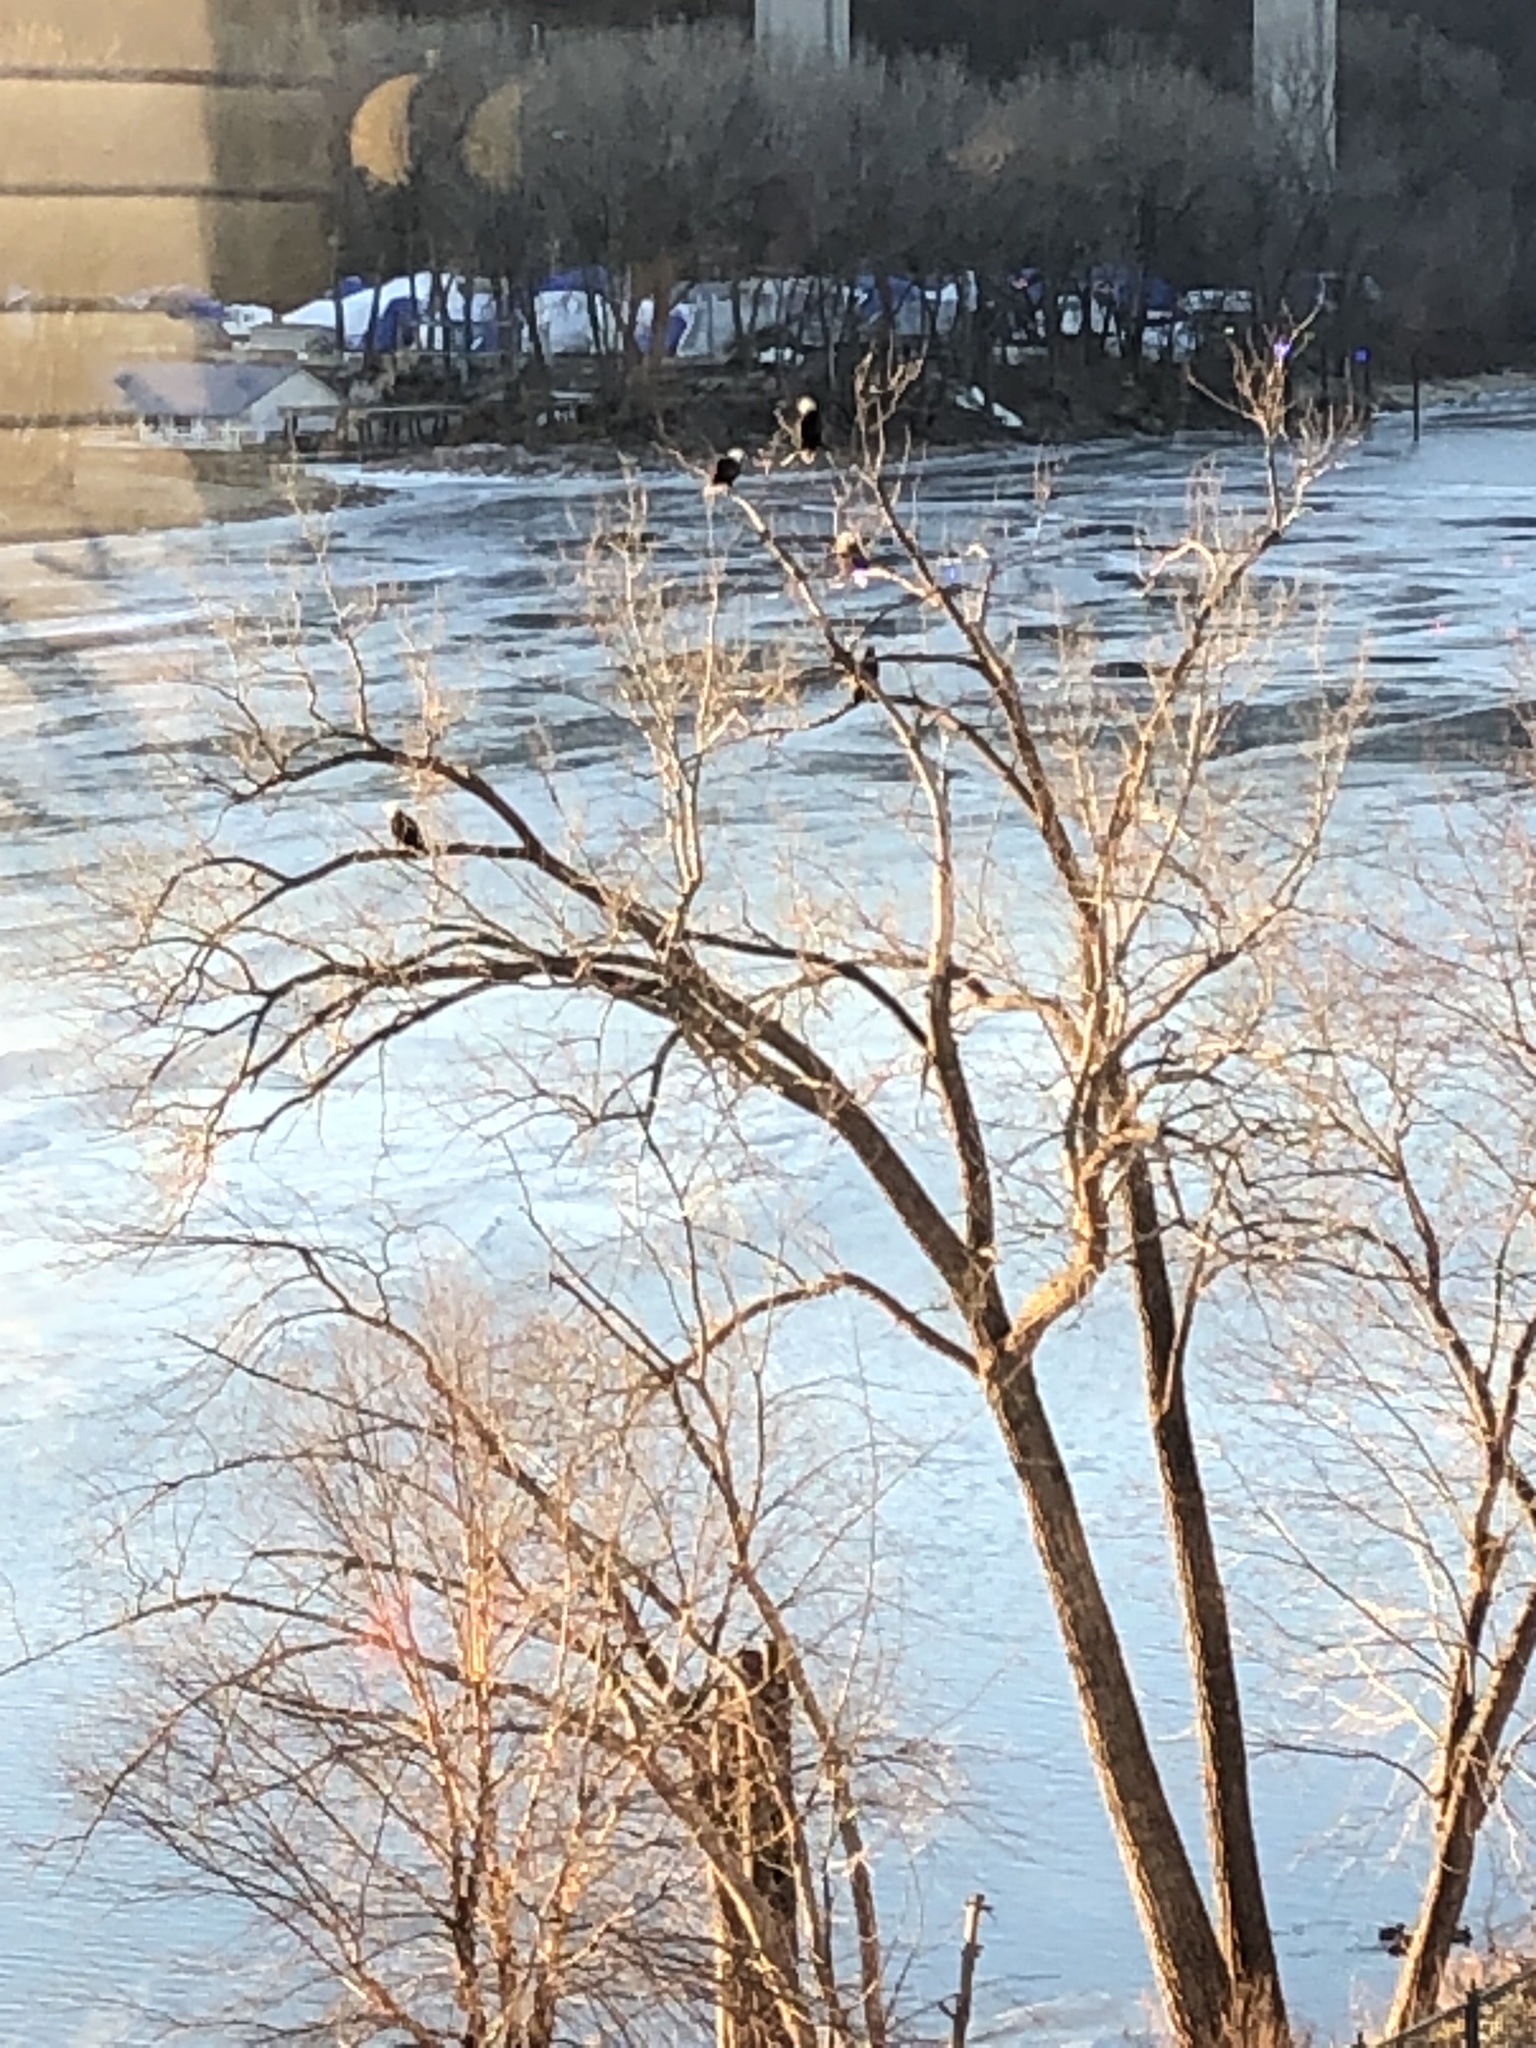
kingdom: Animalia
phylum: Chordata
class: Aves
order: Accipitriformes
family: Accipitridae
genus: Haliaeetus
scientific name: Haliaeetus leucocephalus
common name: Bald eagle
